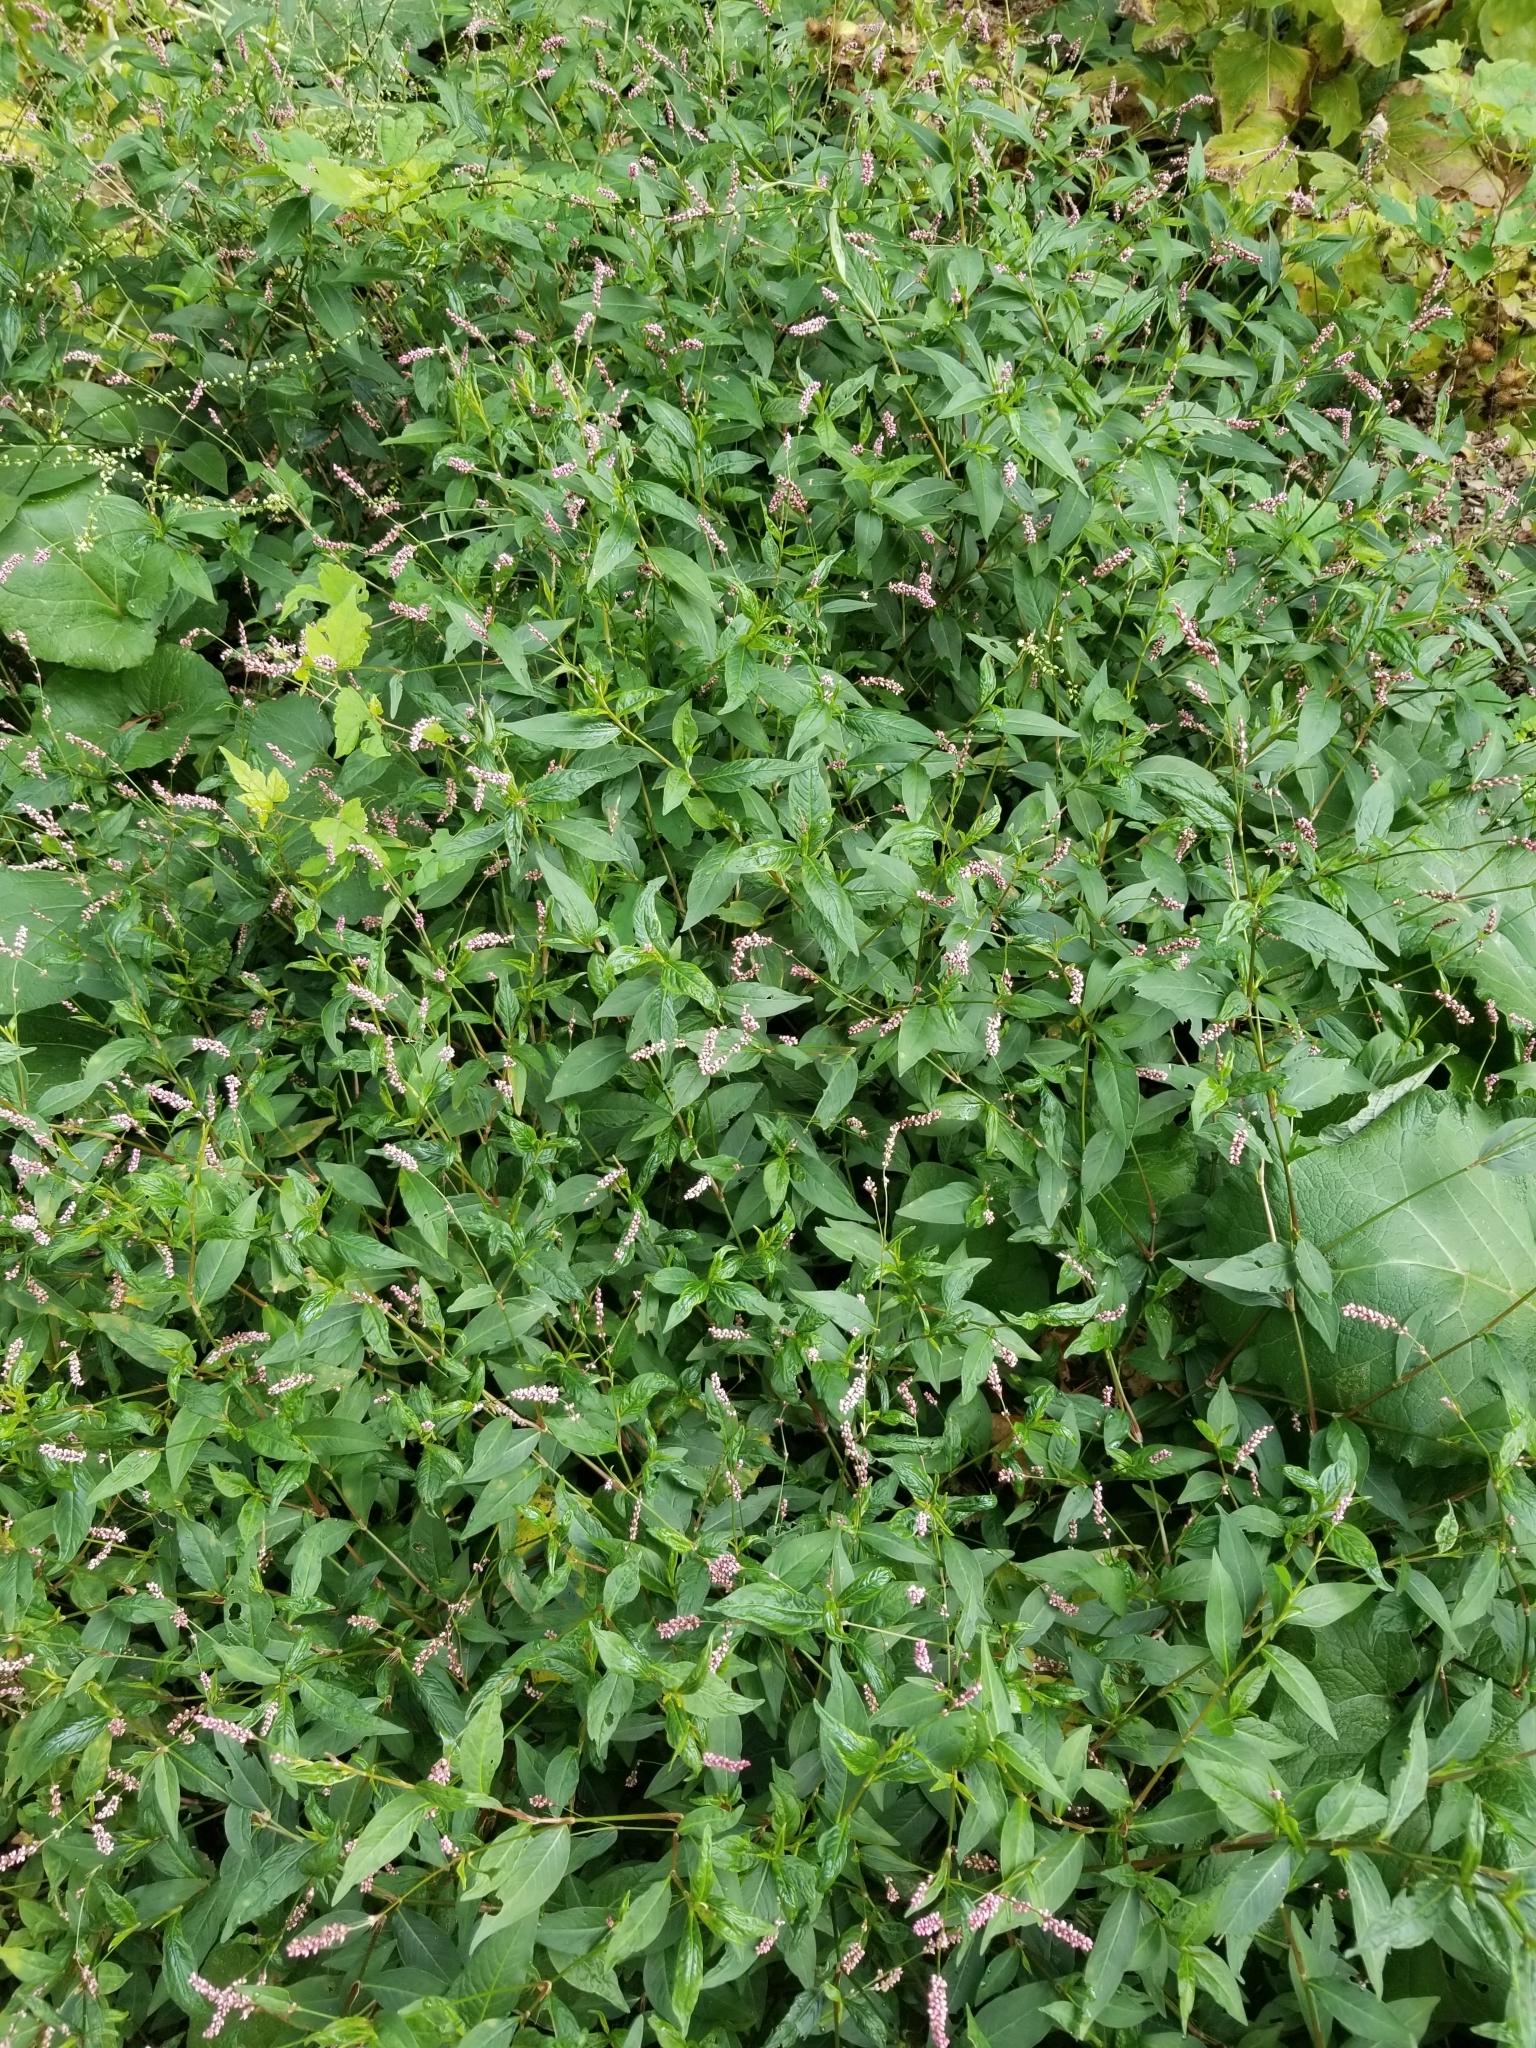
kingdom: Plantae
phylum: Tracheophyta
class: Magnoliopsida
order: Caryophyllales
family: Polygonaceae
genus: Persicaria
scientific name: Persicaria longiseta
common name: Bristly lady's-thumb
